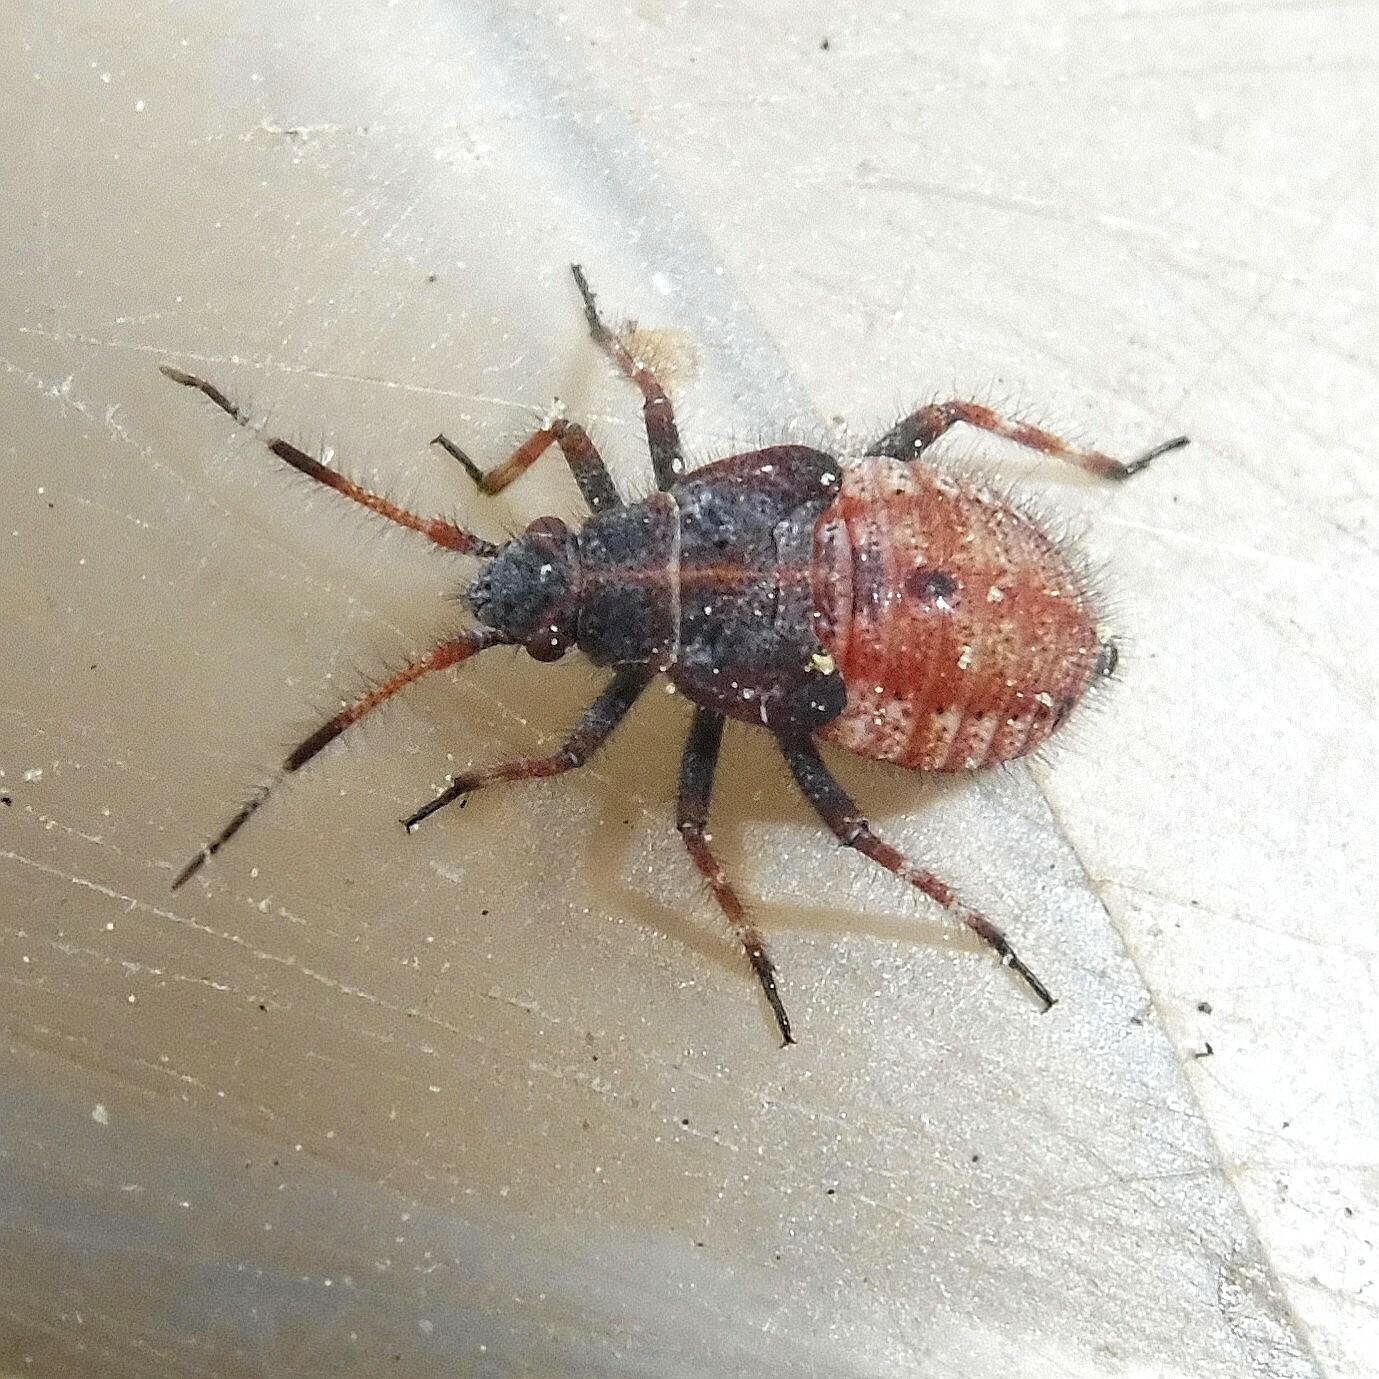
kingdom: Animalia
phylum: Arthropoda
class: Insecta
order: Hemiptera
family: Miridae
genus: Deraeocoris
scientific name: Deraeocoris olivaceus
